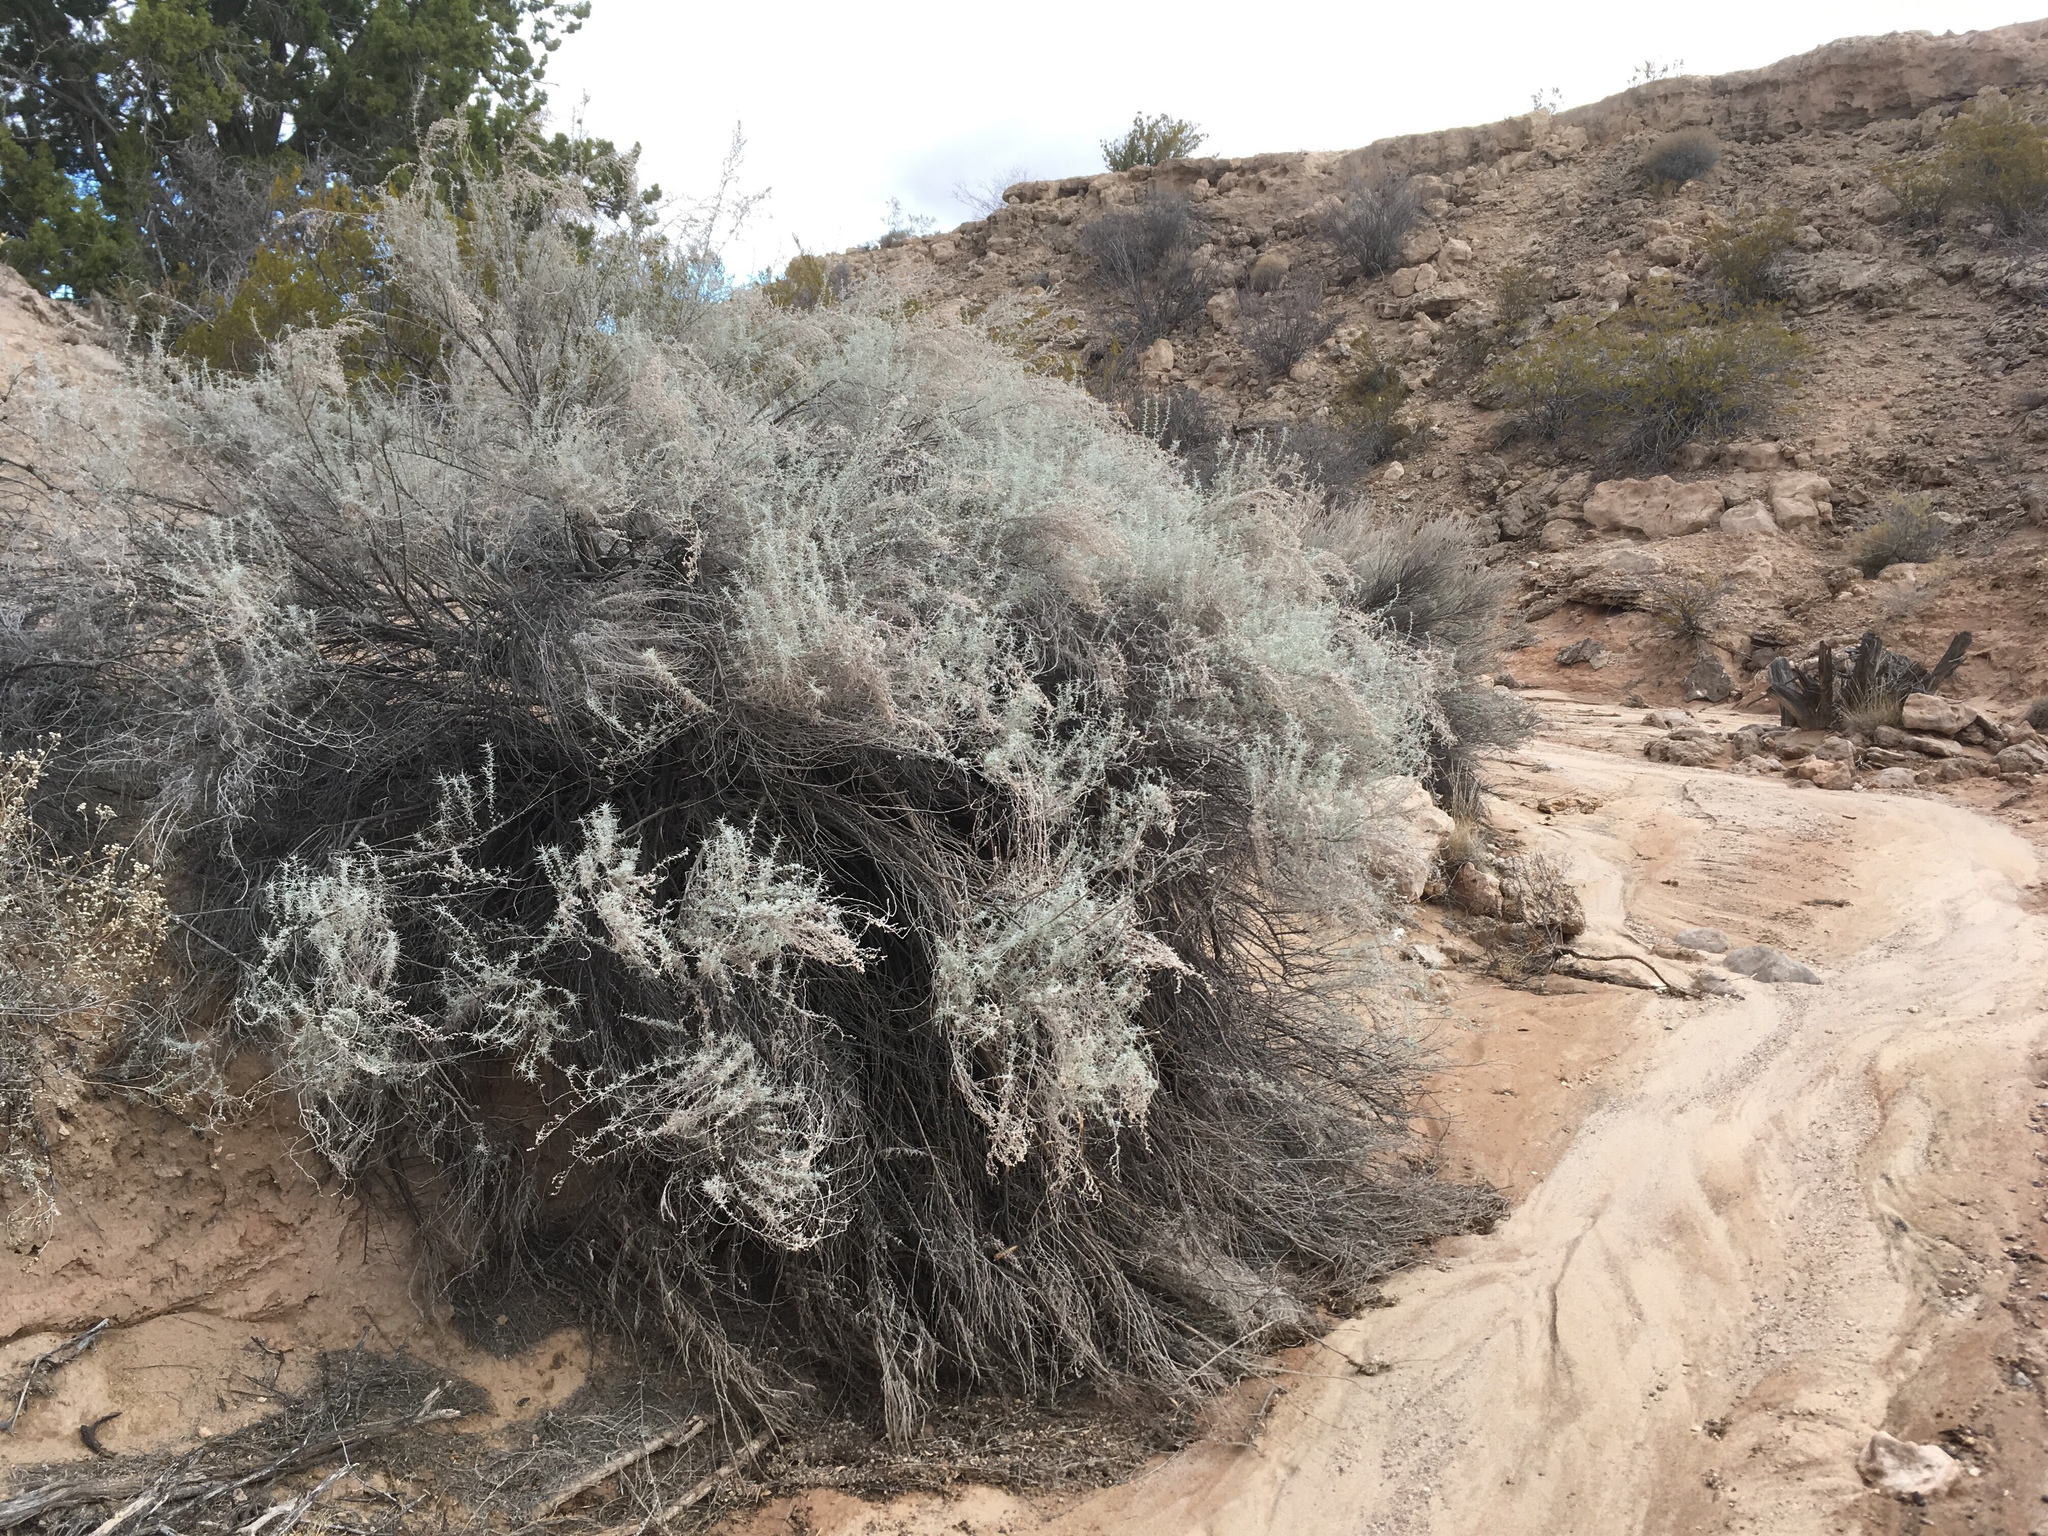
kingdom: Plantae
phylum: Tracheophyta
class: Magnoliopsida
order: Asterales
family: Asteraceae
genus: Artemisia
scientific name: Artemisia filifolia
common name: Sand-sage
